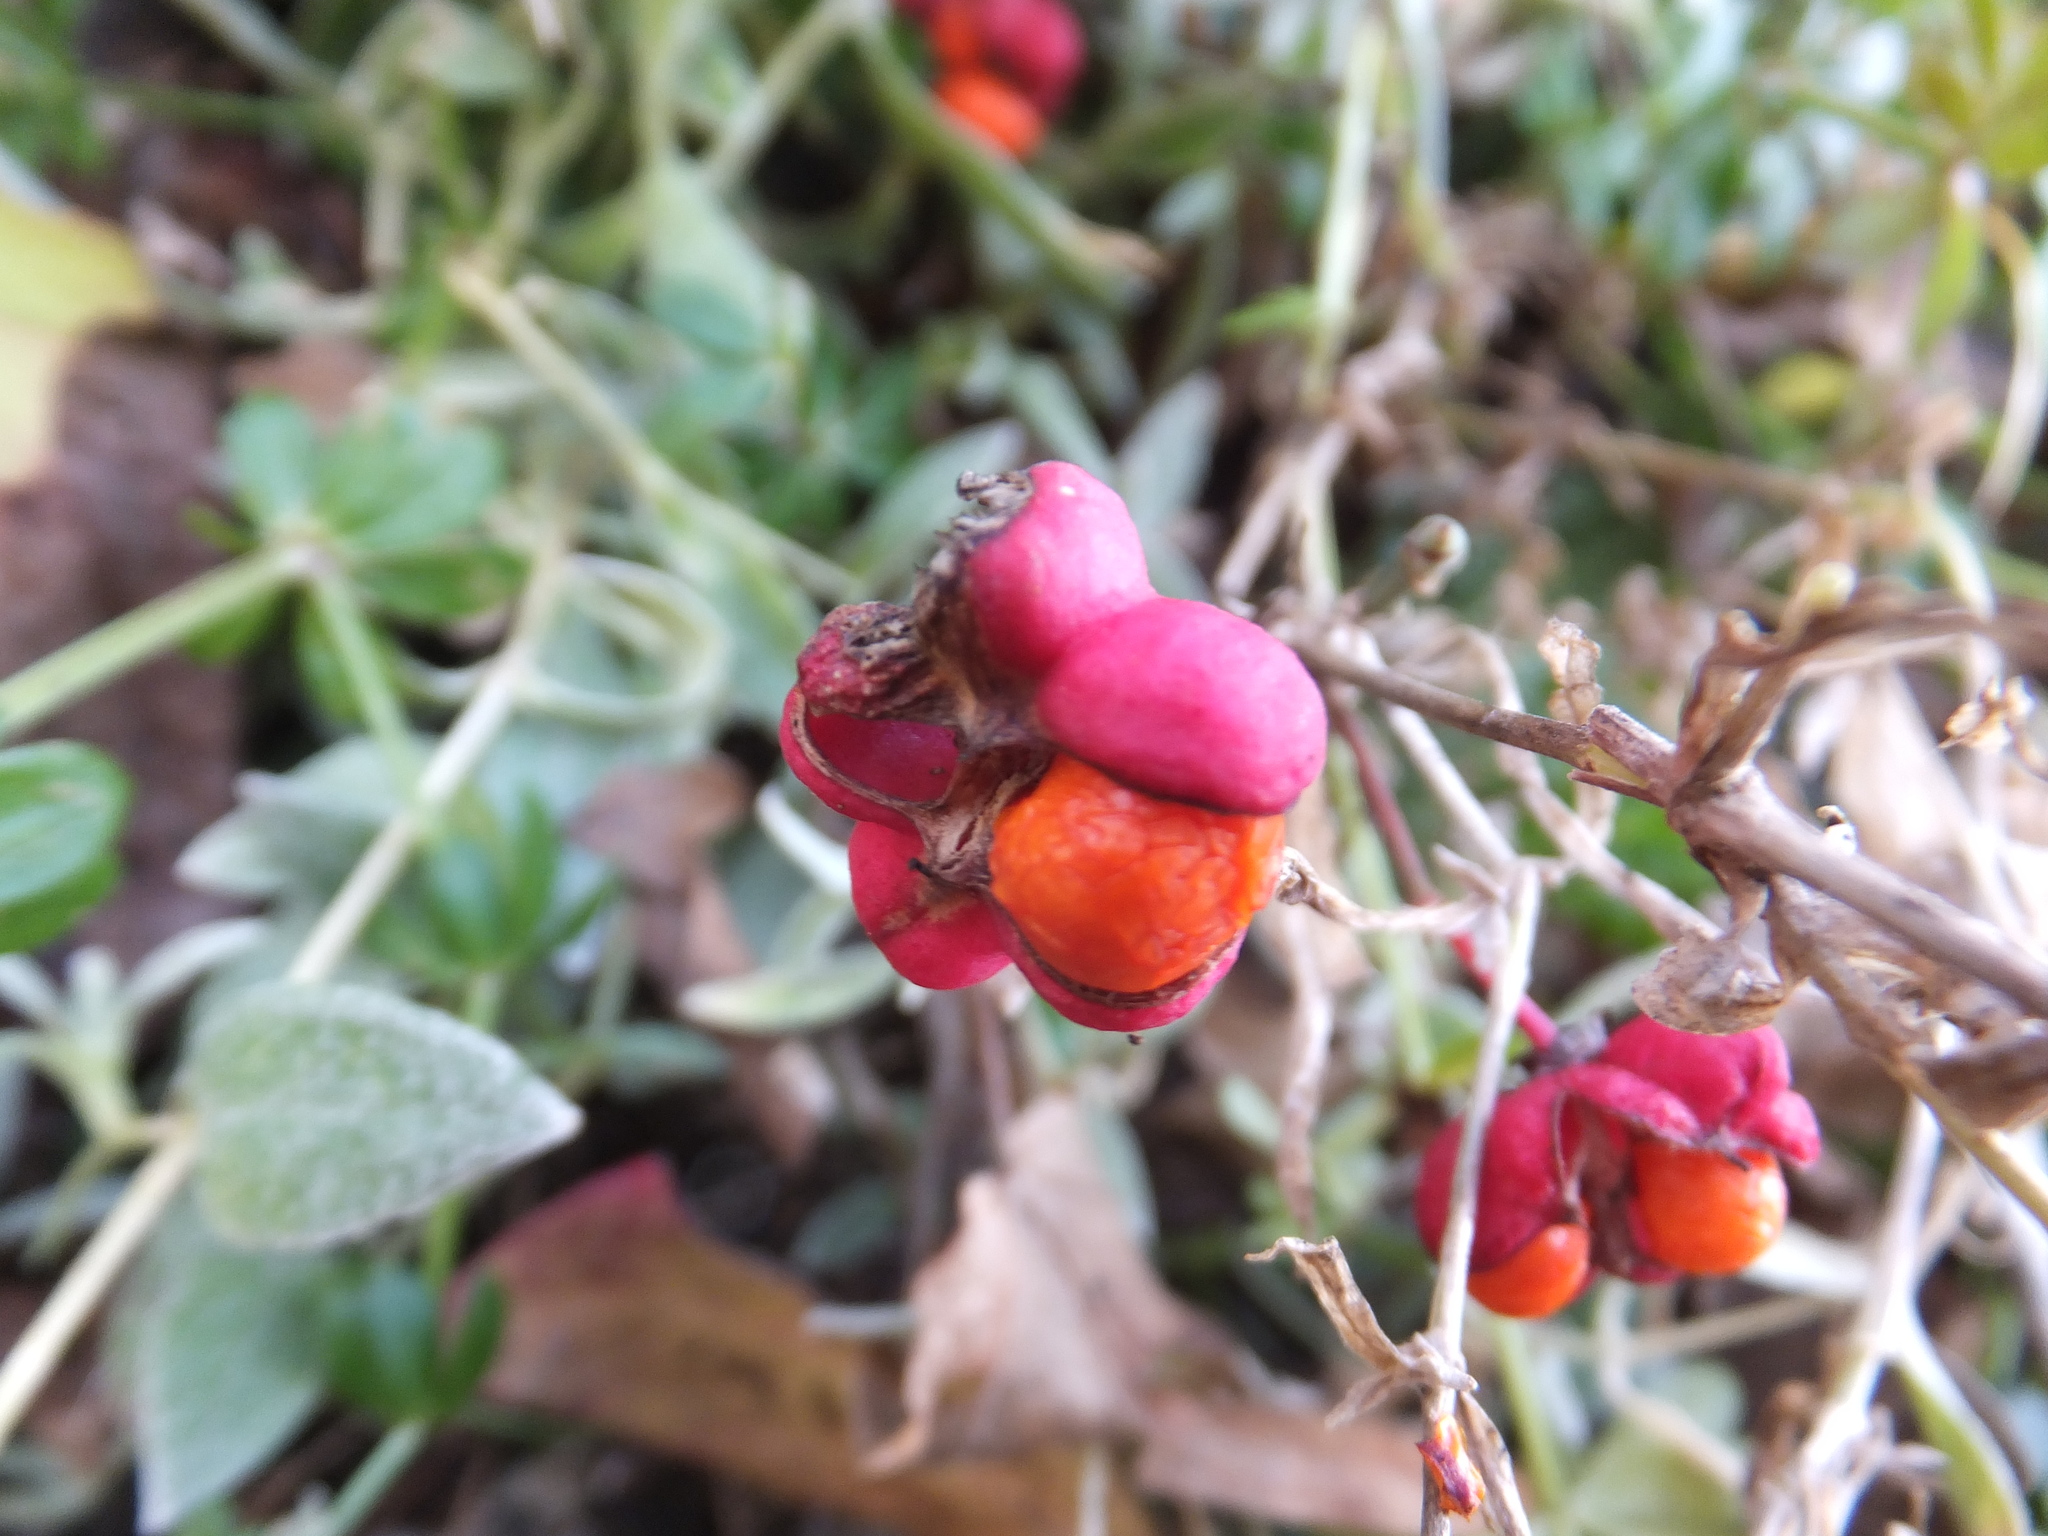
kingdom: Plantae
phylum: Tracheophyta
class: Magnoliopsida
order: Celastrales
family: Celastraceae
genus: Euonymus
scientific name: Euonymus europaeus
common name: Spindle
